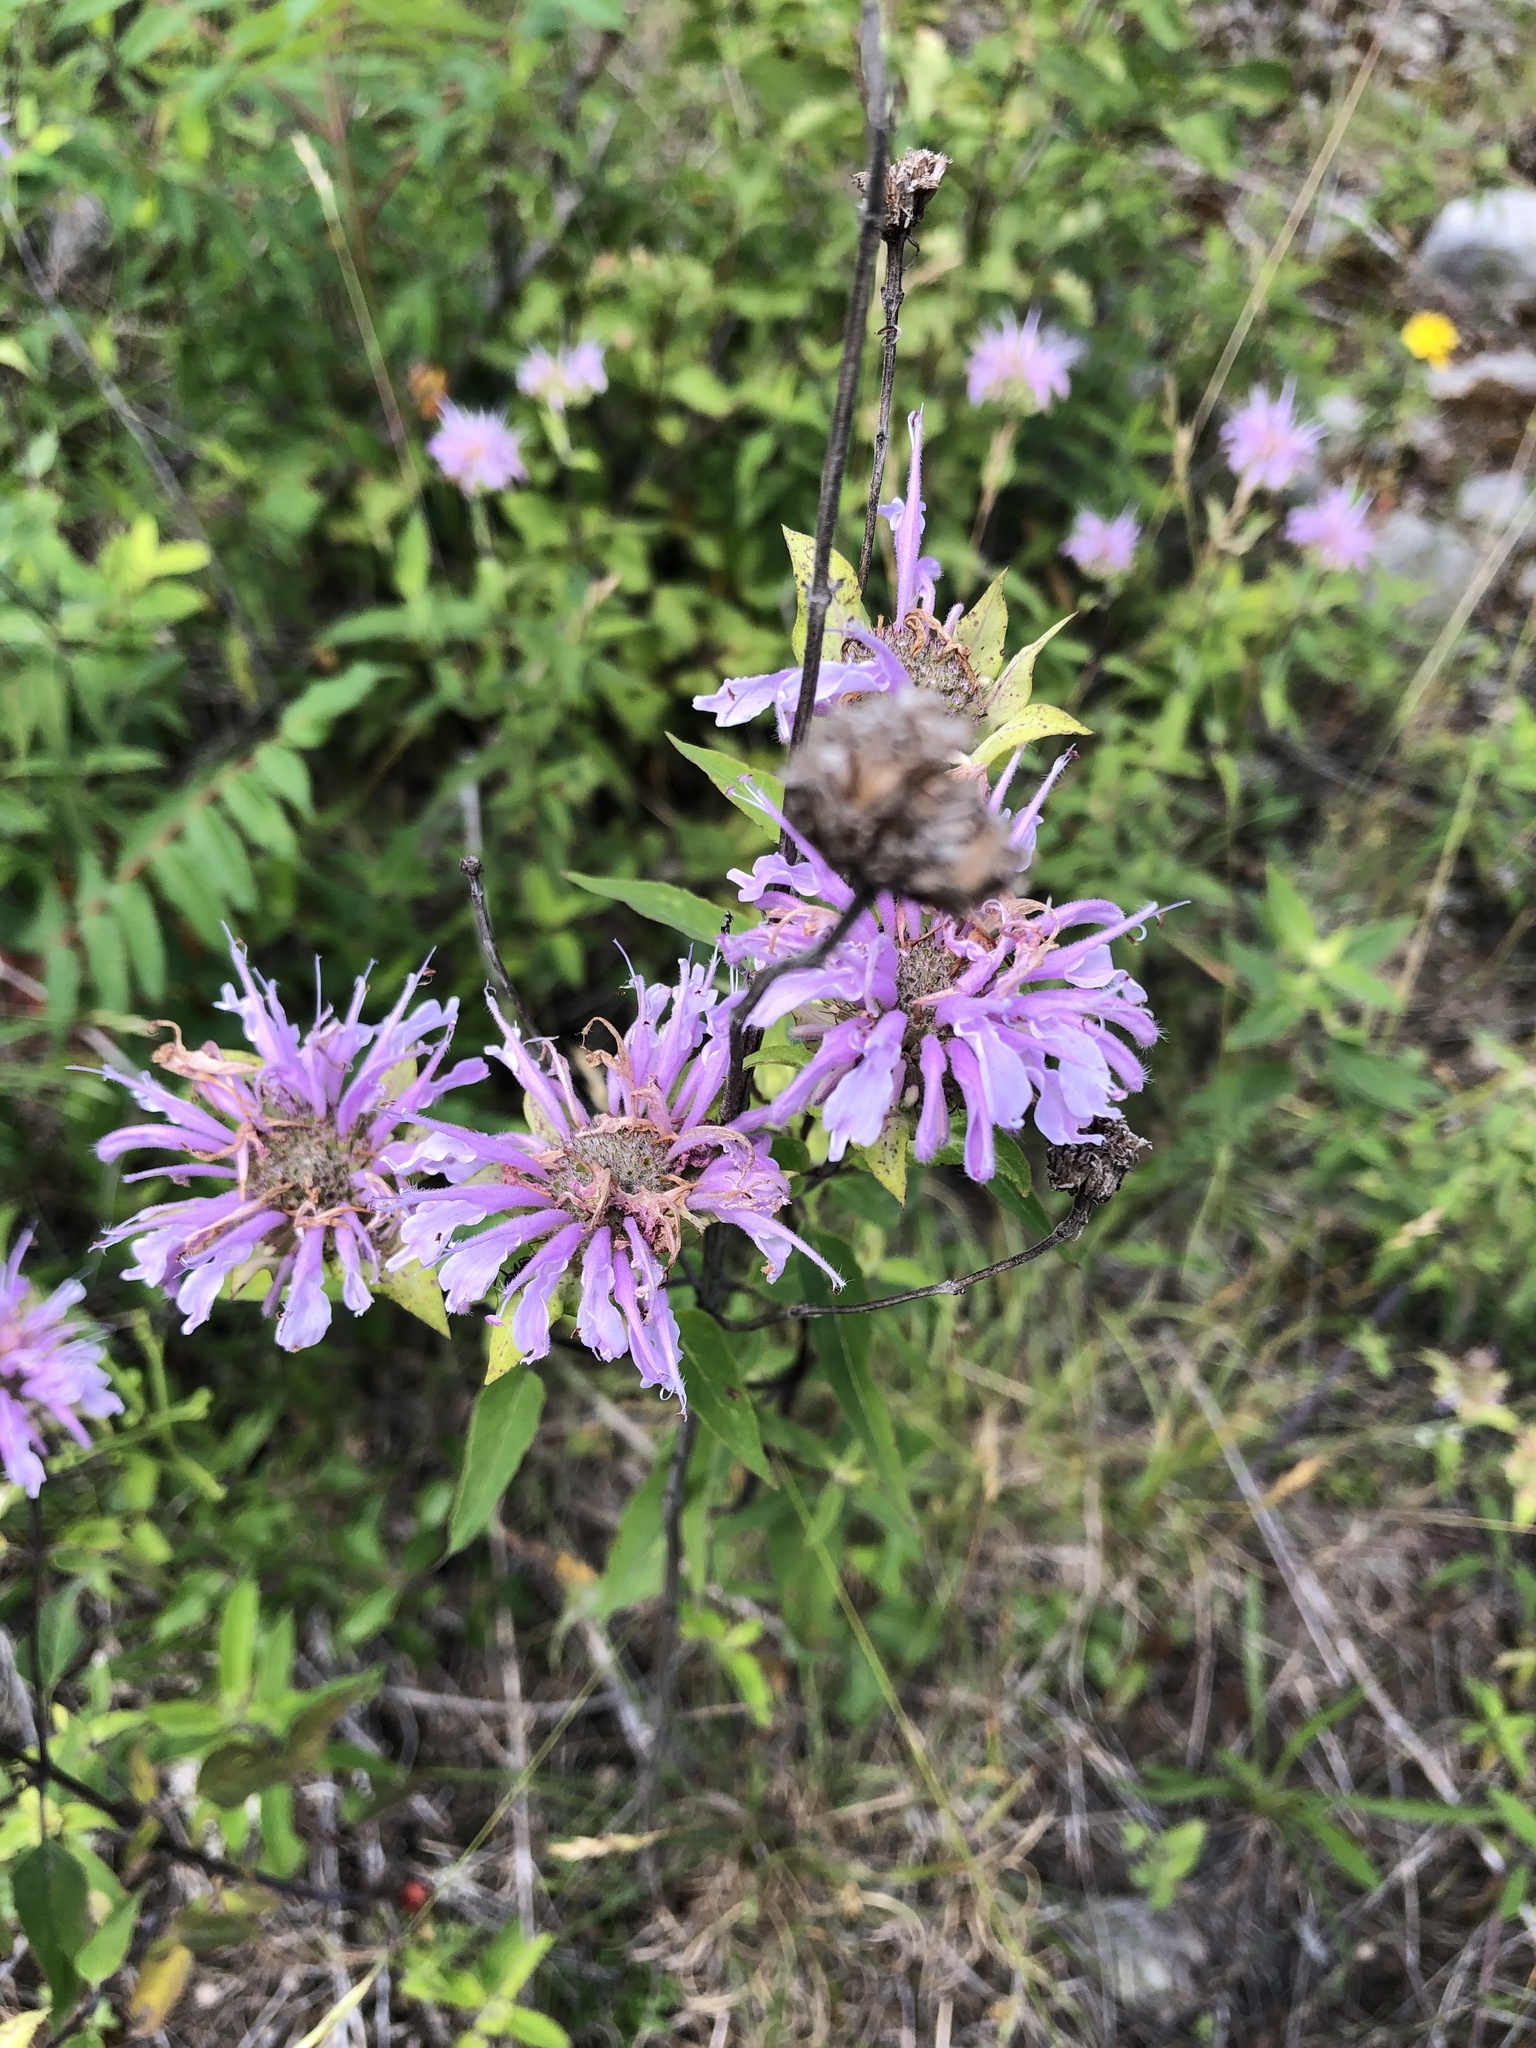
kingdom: Plantae
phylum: Tracheophyta
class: Magnoliopsida
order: Lamiales
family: Lamiaceae
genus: Monarda
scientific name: Monarda fistulosa
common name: Purple beebalm
